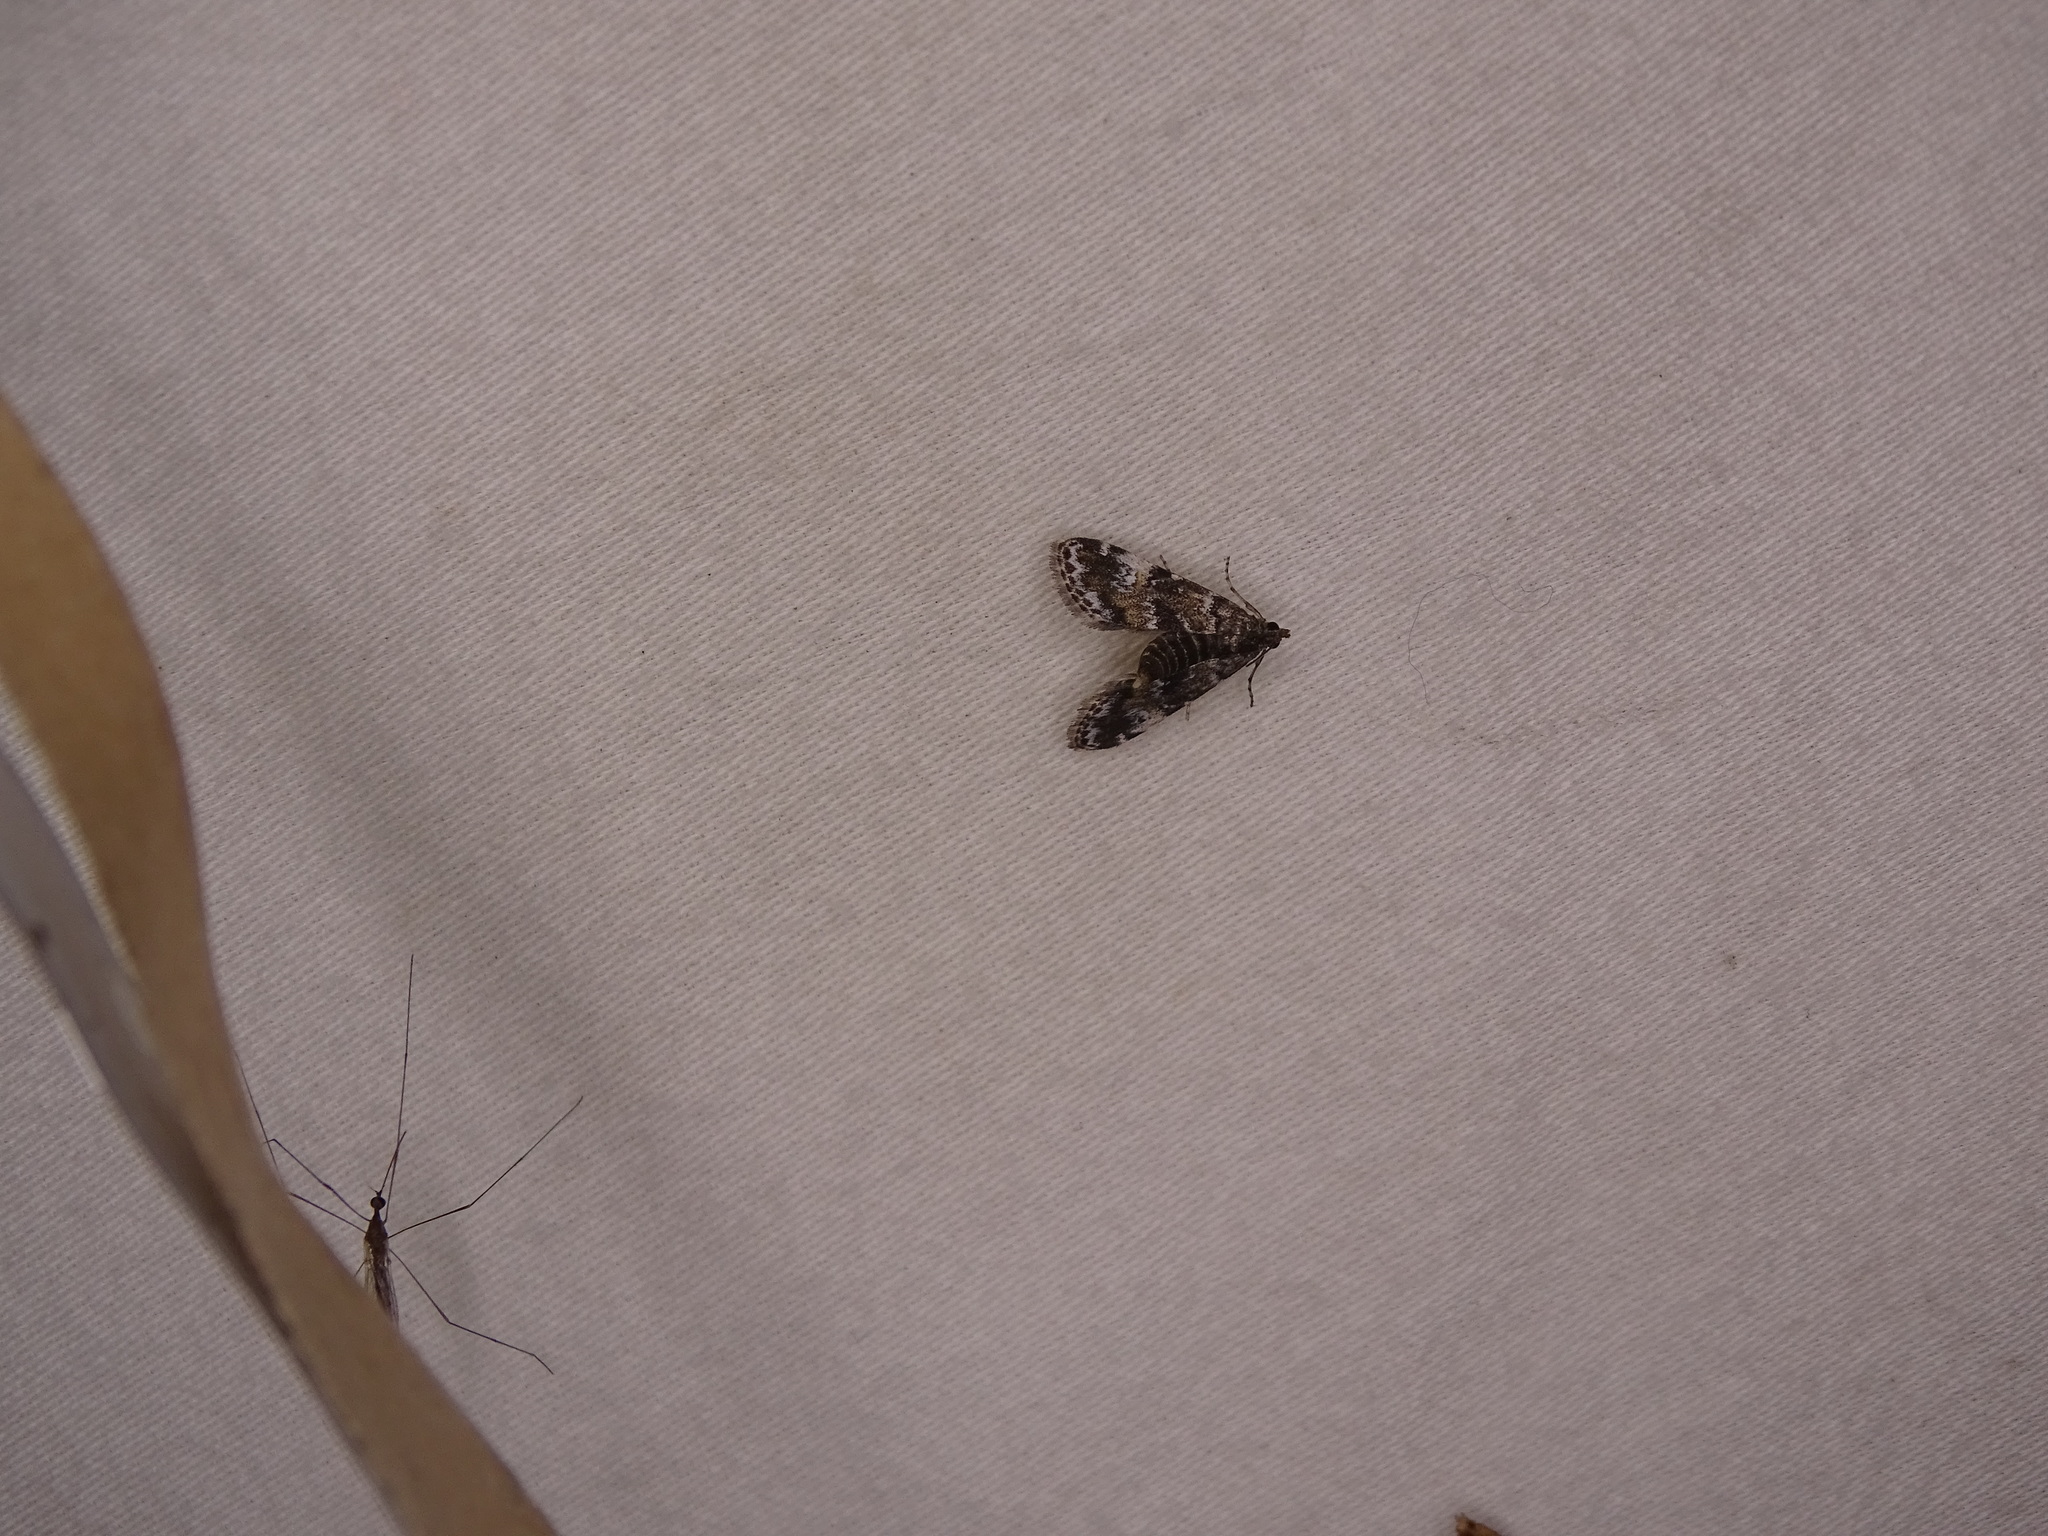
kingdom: Animalia
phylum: Arthropoda
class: Insecta
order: Lepidoptera
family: Crambidae
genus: Elophila
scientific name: Elophila obliteralis
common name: Waterlily leafcutter moth
